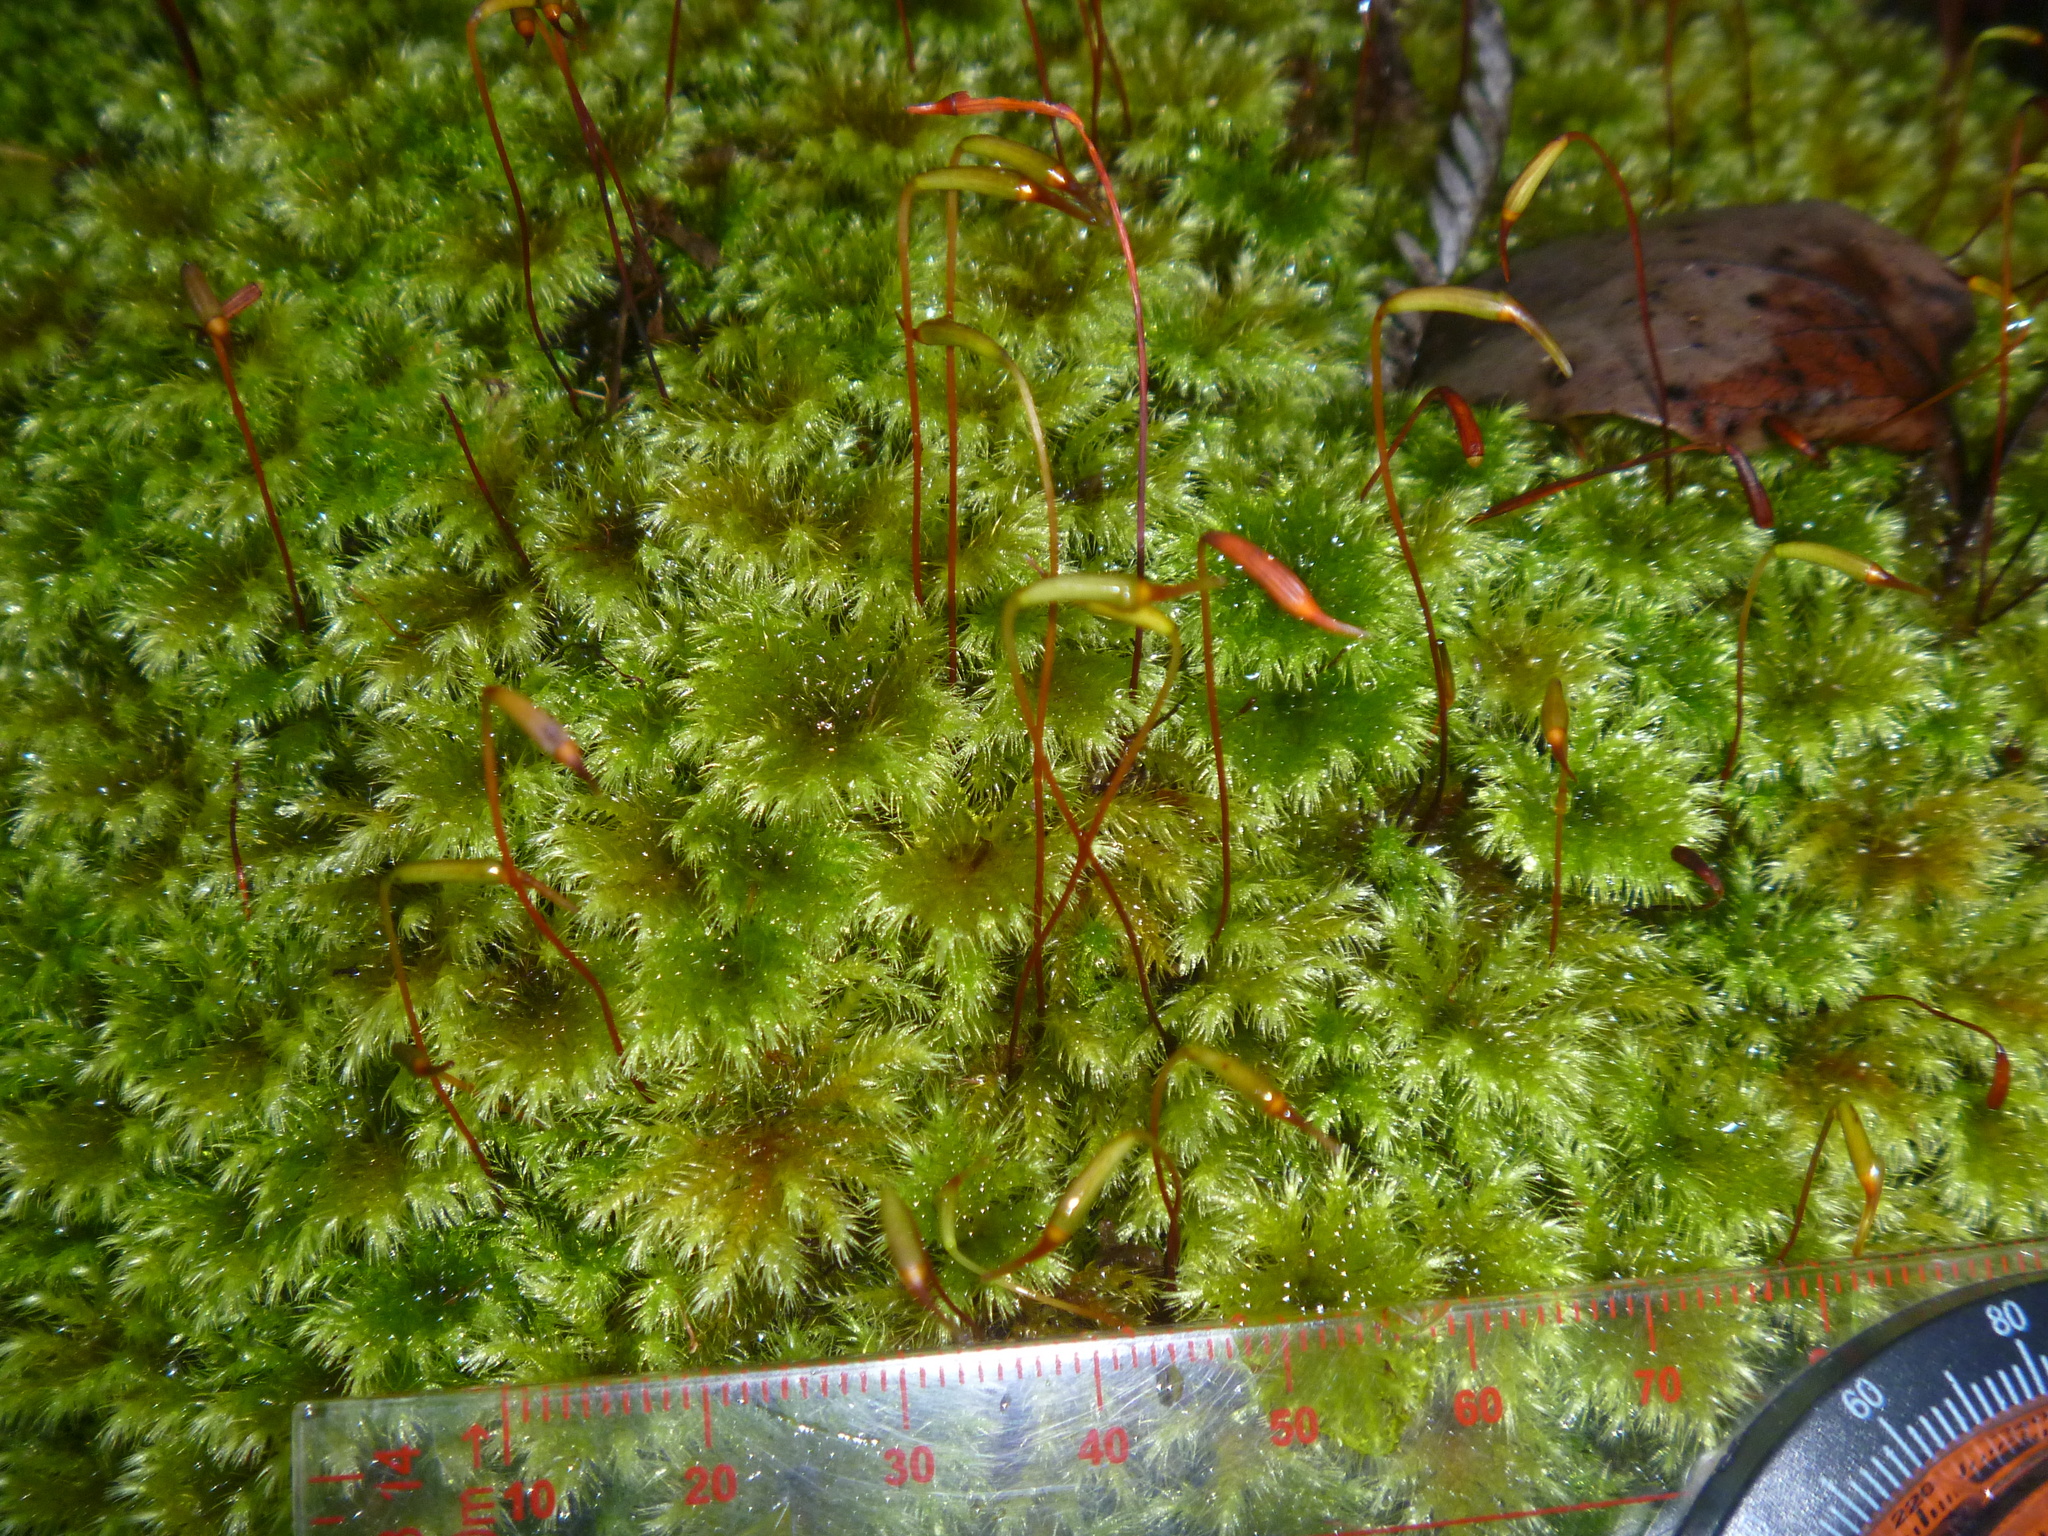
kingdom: Plantae
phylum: Bryophyta
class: Bryopsida
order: Hypnodendrales
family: Spiridentaceae
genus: Mniodendron
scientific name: Mniodendron colensoi
